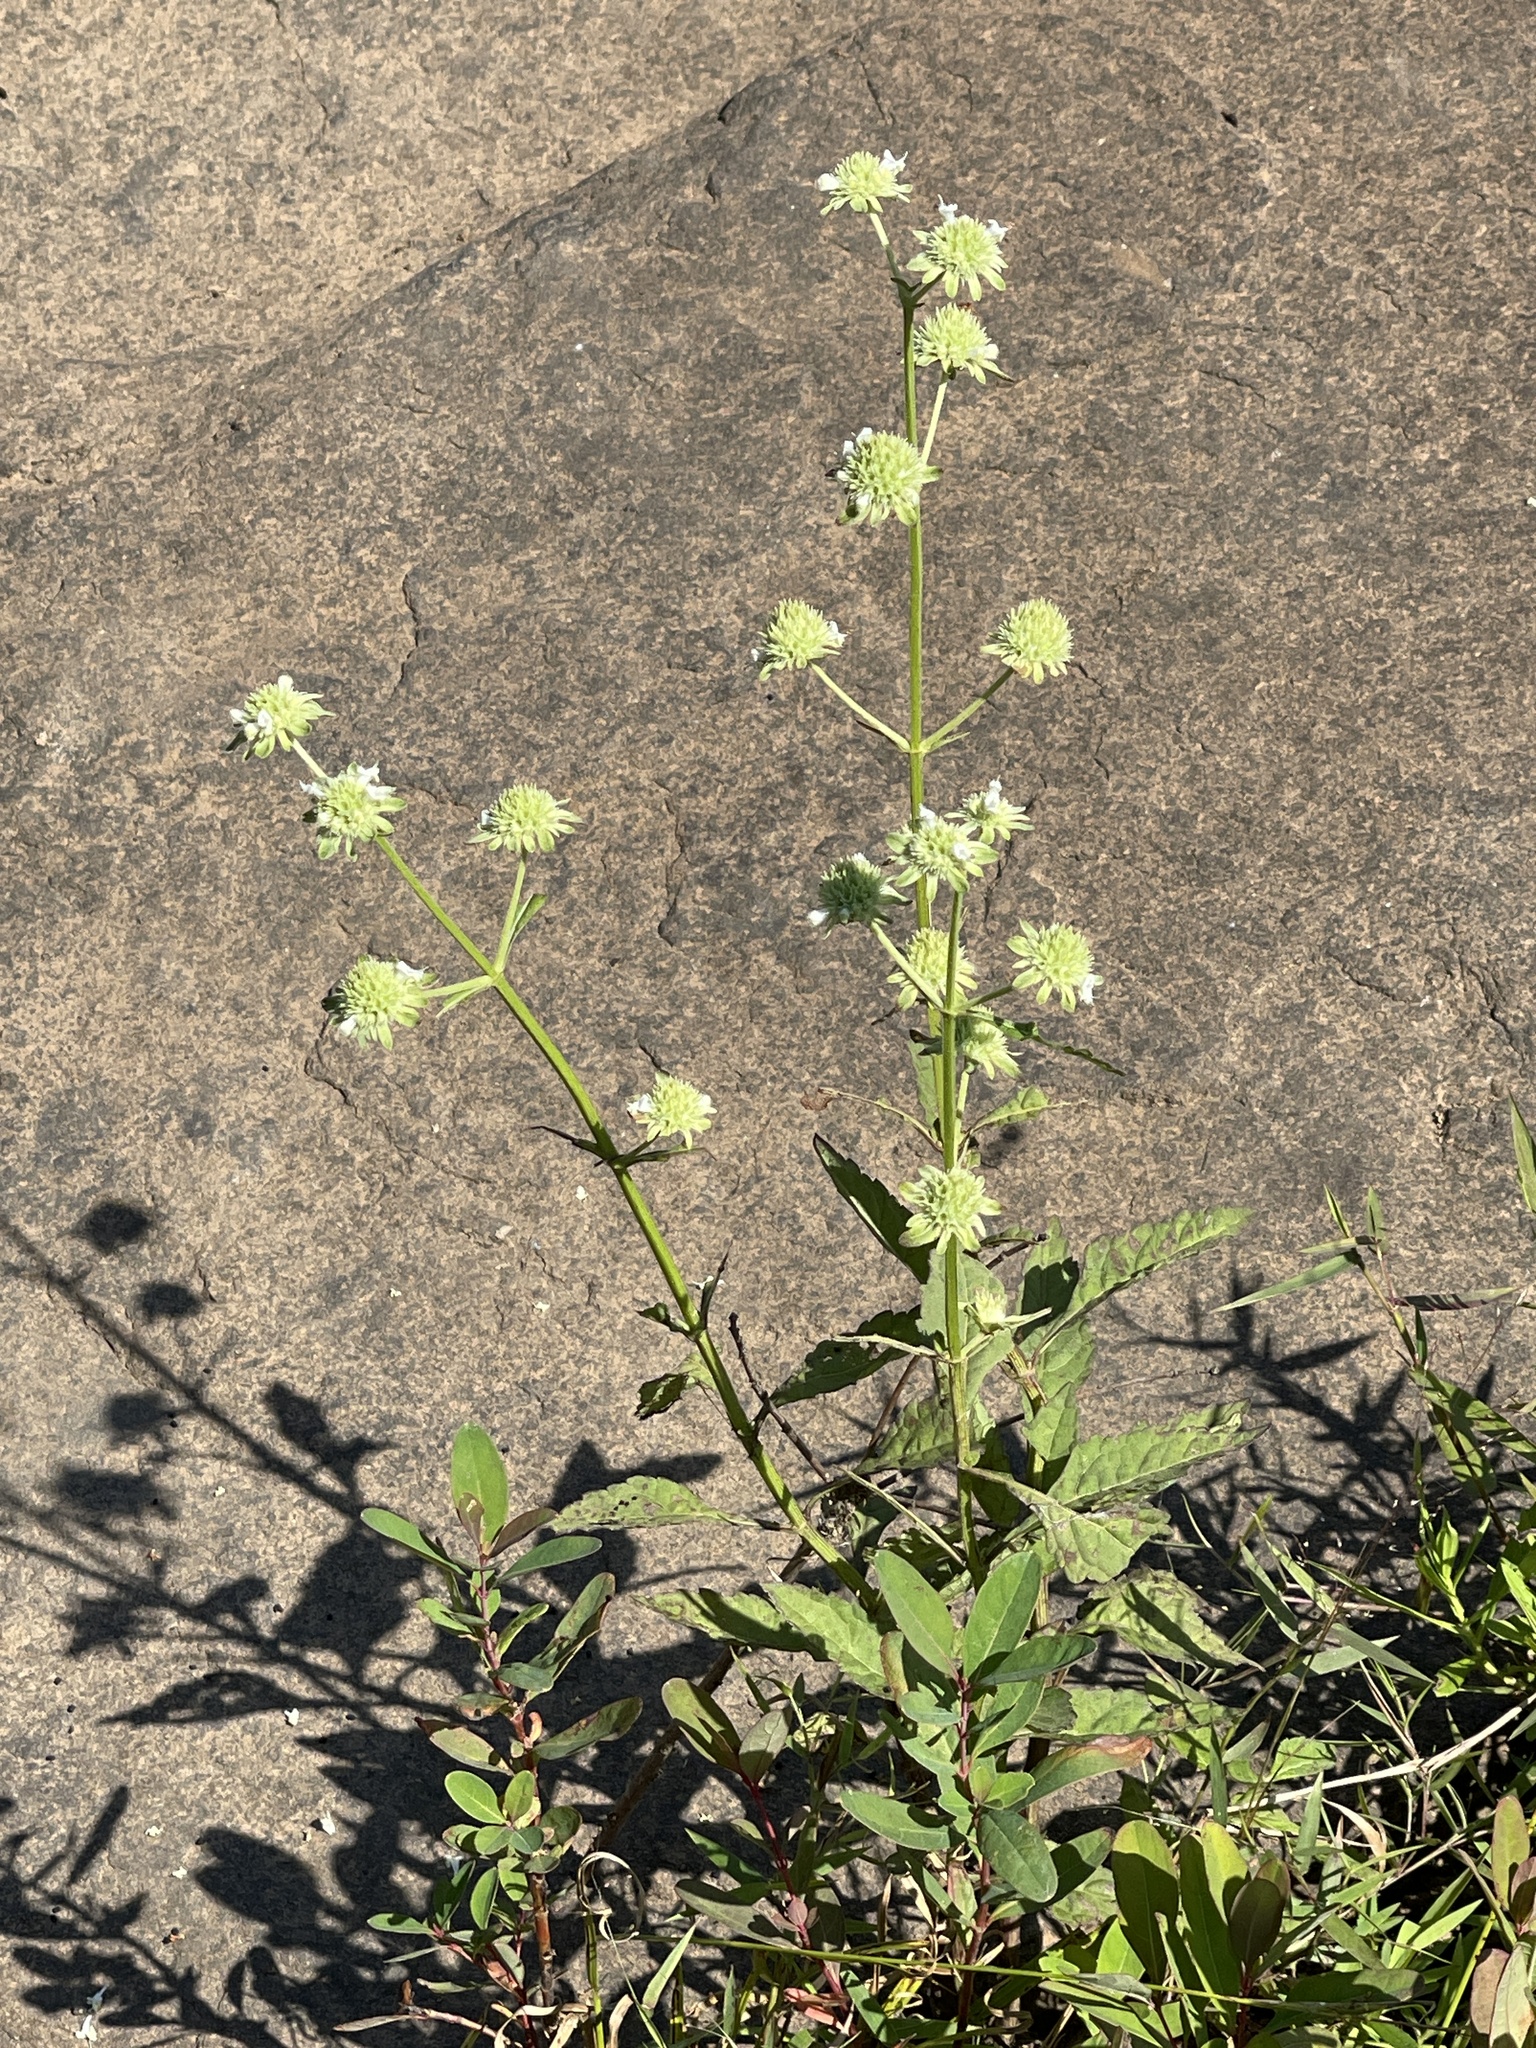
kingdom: Plantae
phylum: Tracheophyta
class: Magnoliopsida
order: Lamiales
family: Lamiaceae
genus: Hyptis
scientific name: Hyptis alata
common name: Cluster bush-mint
